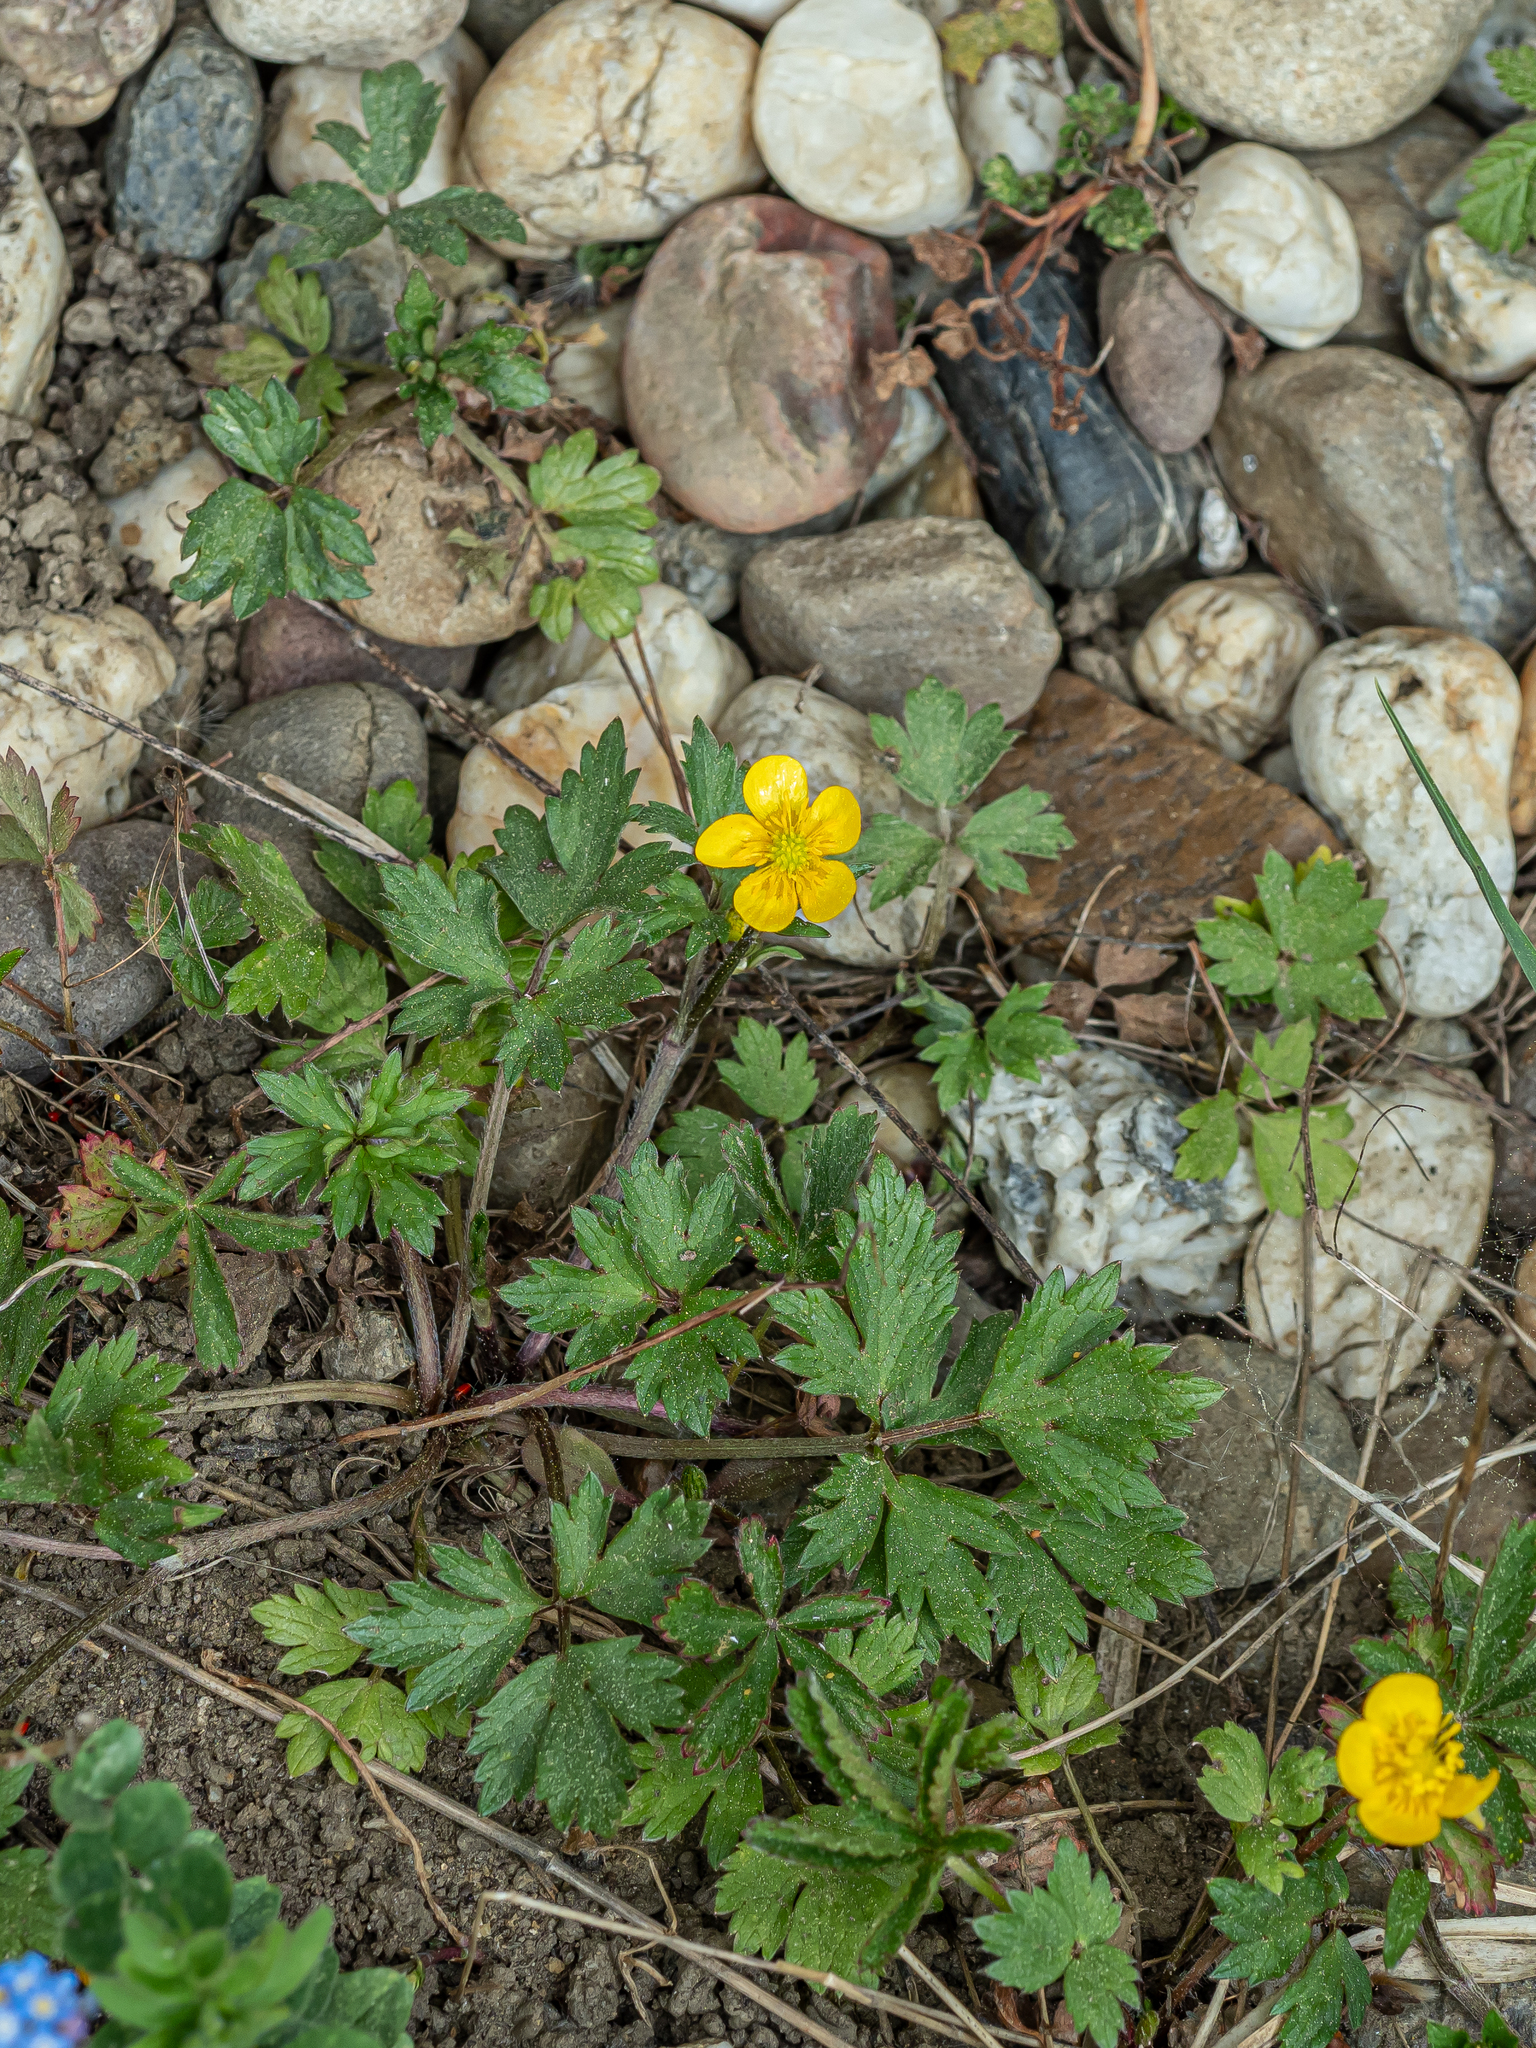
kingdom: Plantae
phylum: Tracheophyta
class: Magnoliopsida
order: Ranunculales
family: Ranunculaceae
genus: Ranunculus
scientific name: Ranunculus repens
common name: Creeping buttercup
